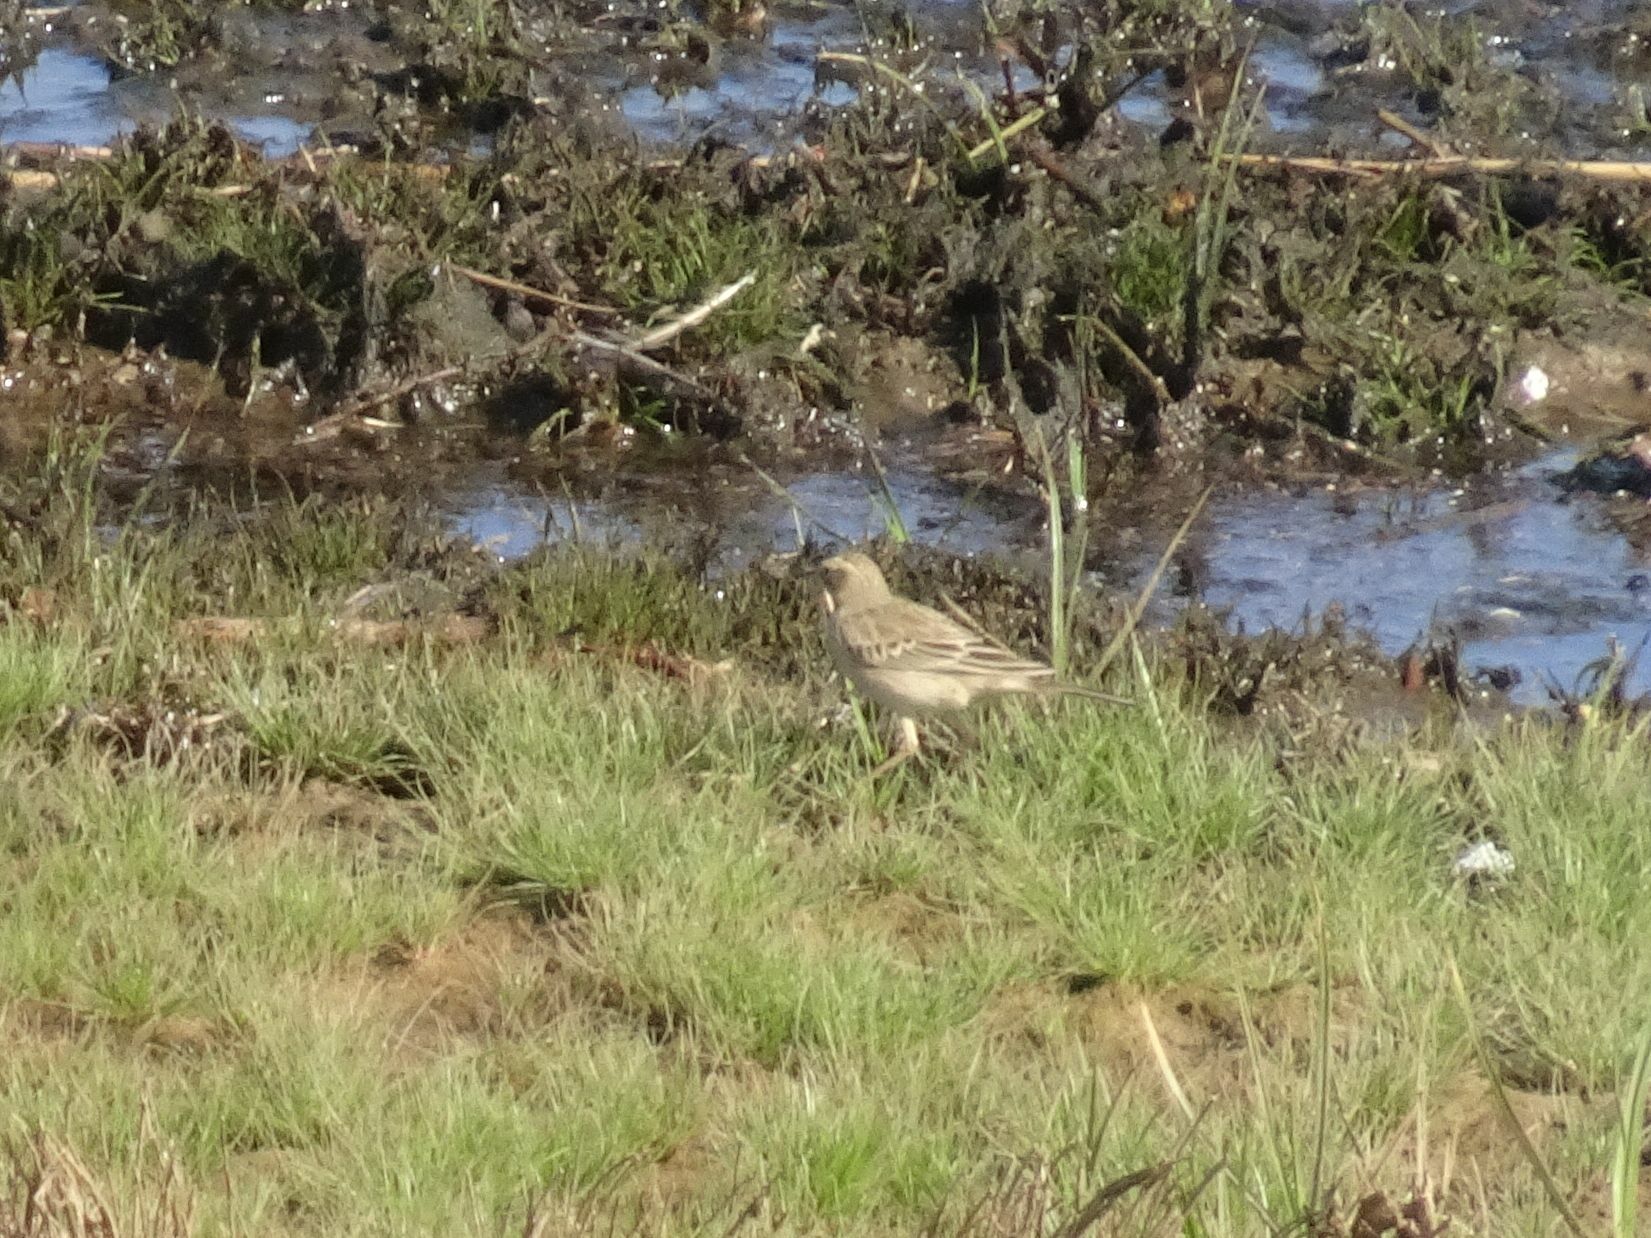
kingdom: Animalia
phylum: Chordata
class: Aves
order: Passeriformes
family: Motacillidae
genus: Anthus
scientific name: Anthus cinnamomeus
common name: African pipit
